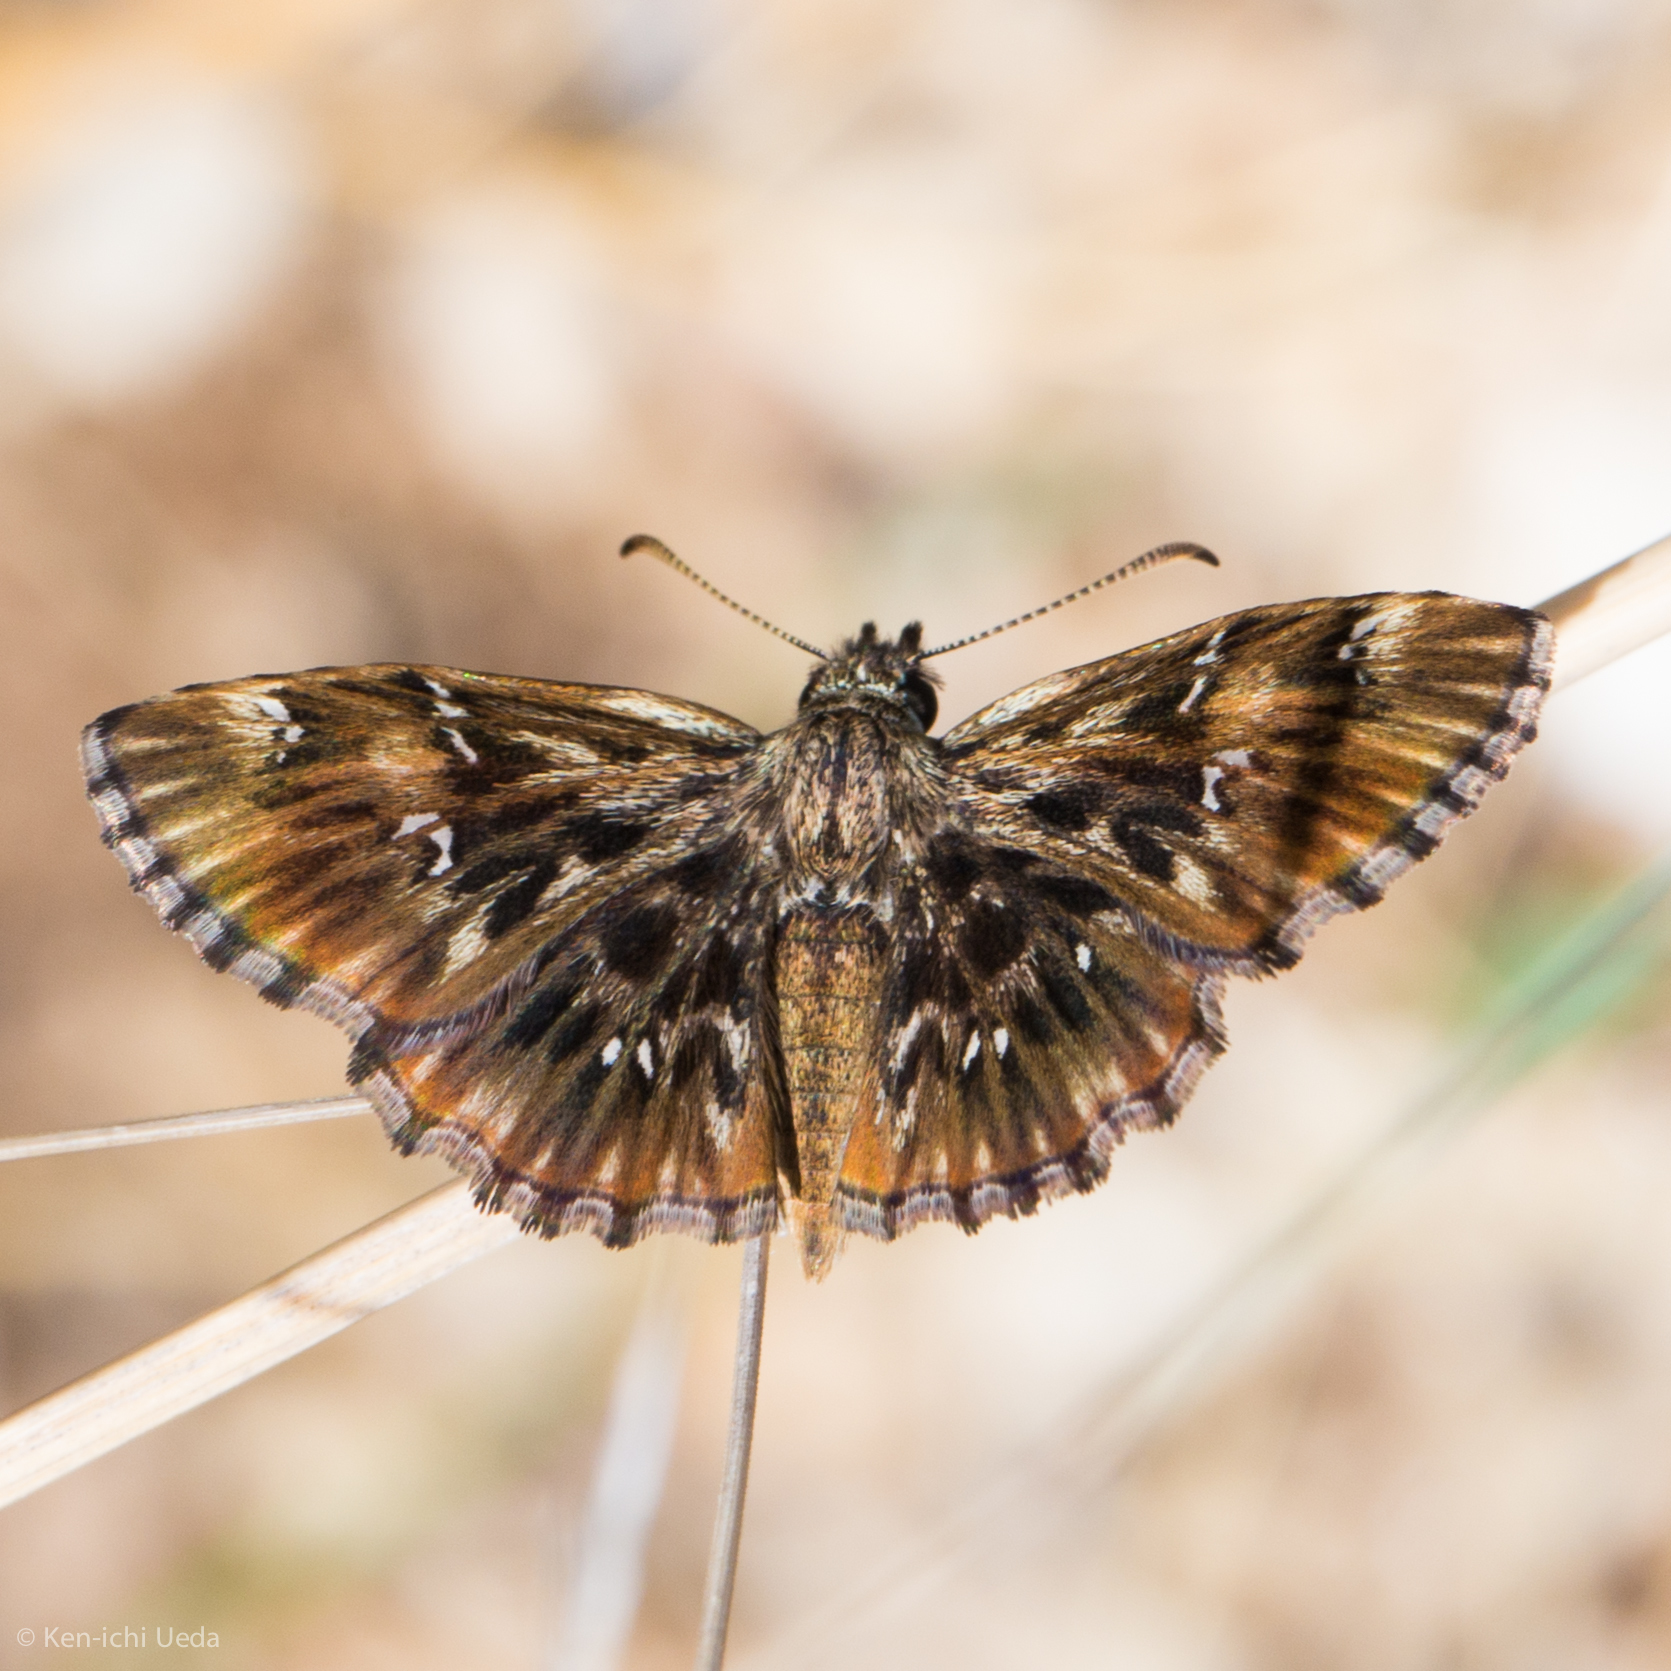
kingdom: Animalia
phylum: Arthropoda
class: Insecta
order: Lepidoptera
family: Hesperiidae
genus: Celotes
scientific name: Celotes nessus
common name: Common streaky-skipper
